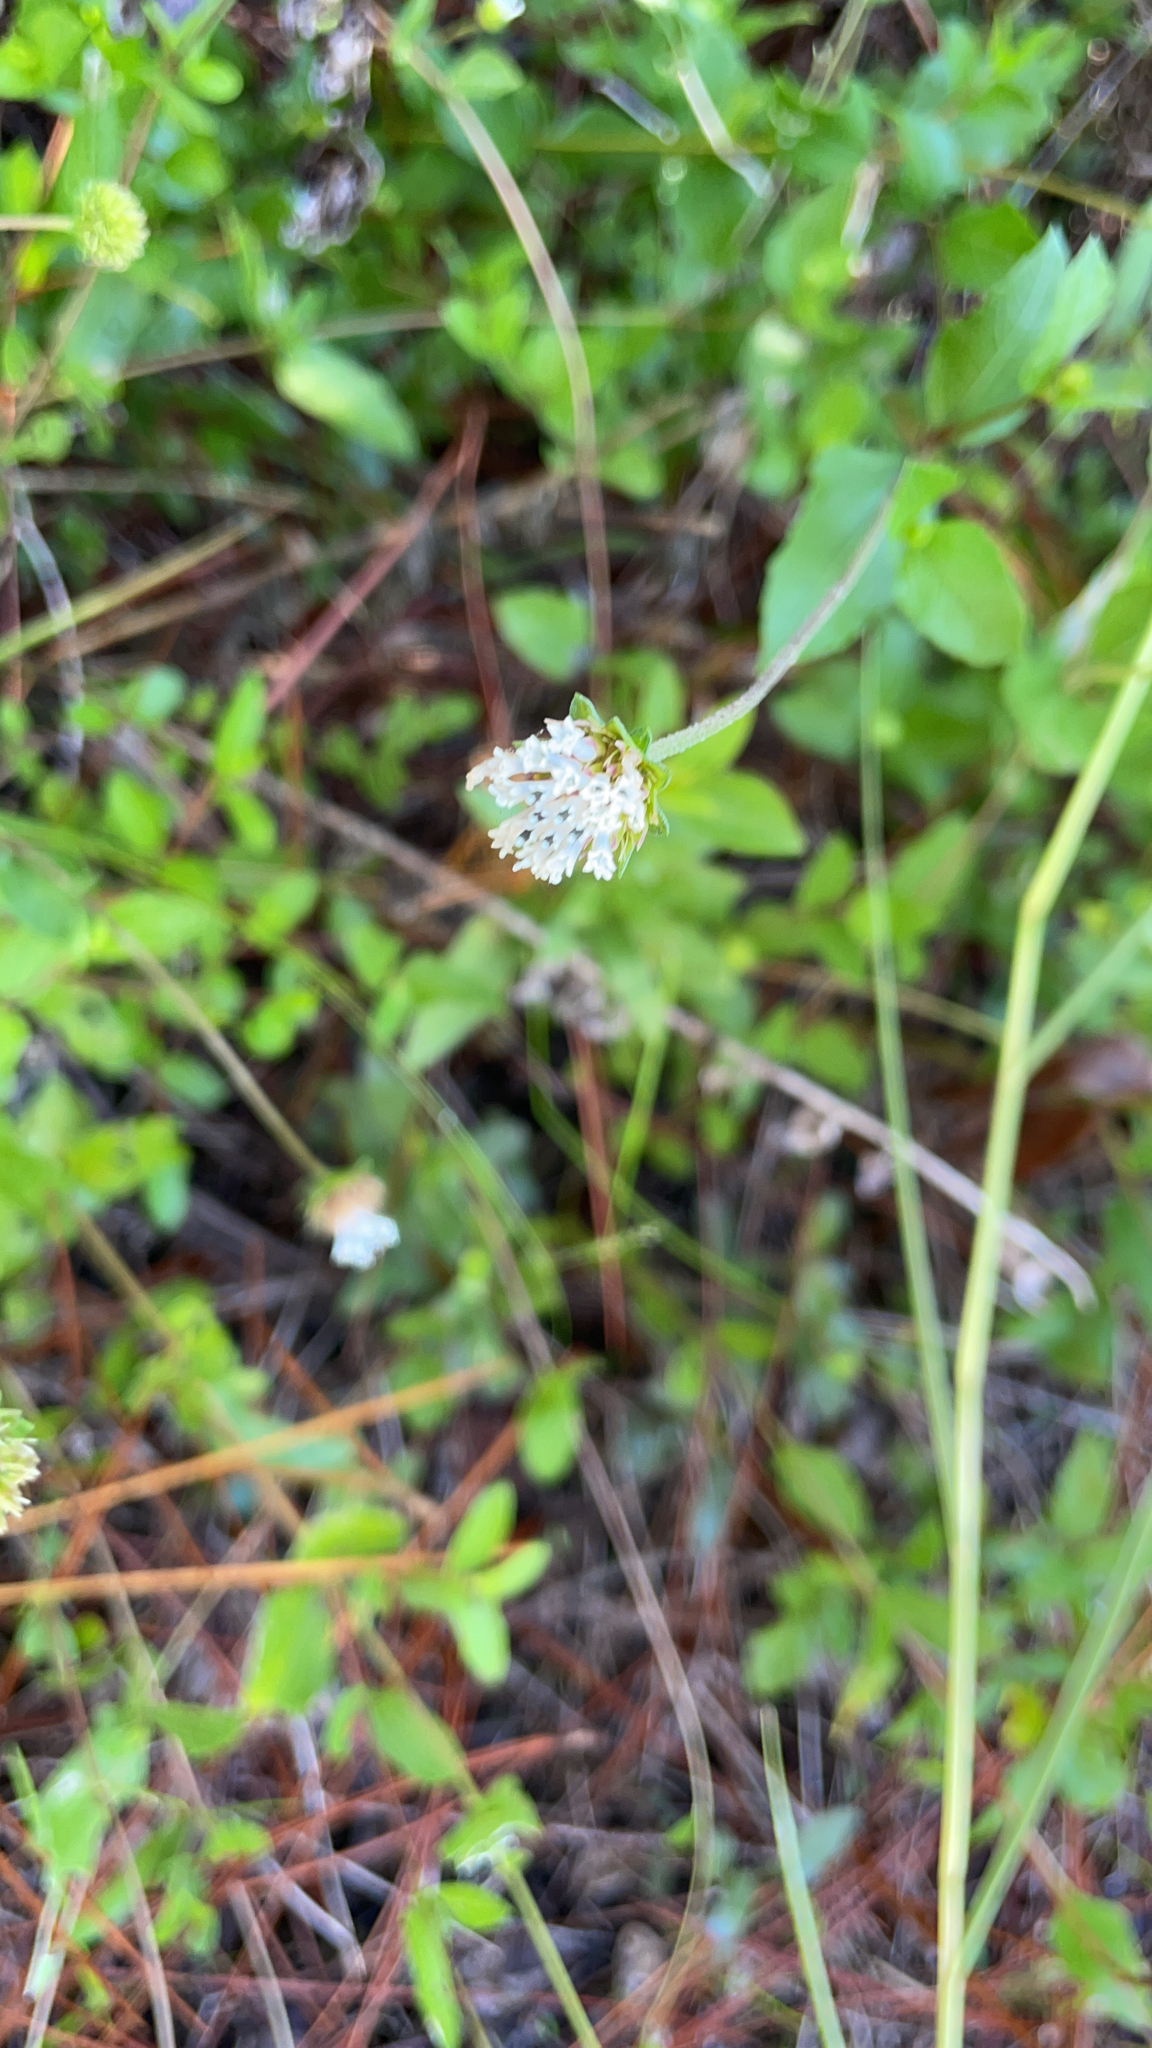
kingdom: Plantae
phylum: Tracheophyta
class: Magnoliopsida
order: Asterales
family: Asteraceae
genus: Melanthera
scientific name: Melanthera angustifolia
